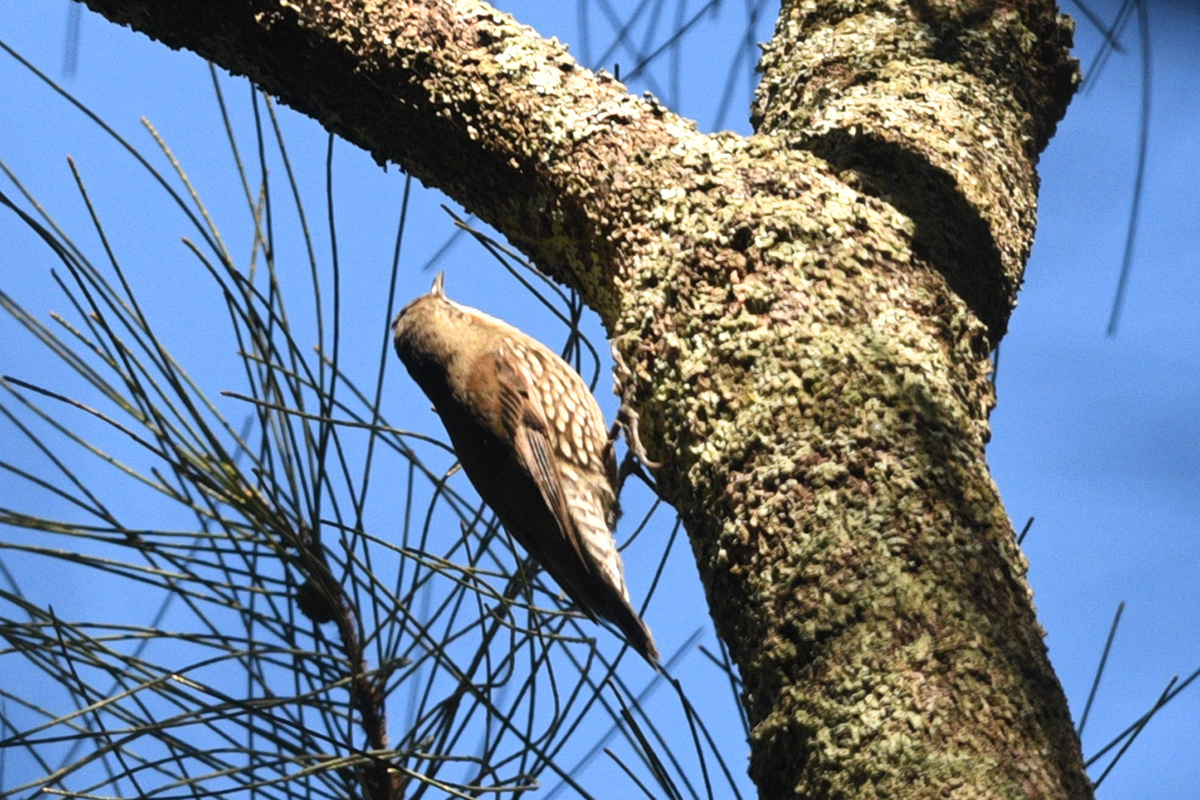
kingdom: Animalia
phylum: Chordata
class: Aves
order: Passeriformes
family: Climacteridae
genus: Cormobates
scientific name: Cormobates leucophaea
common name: White-throated treecreeper
